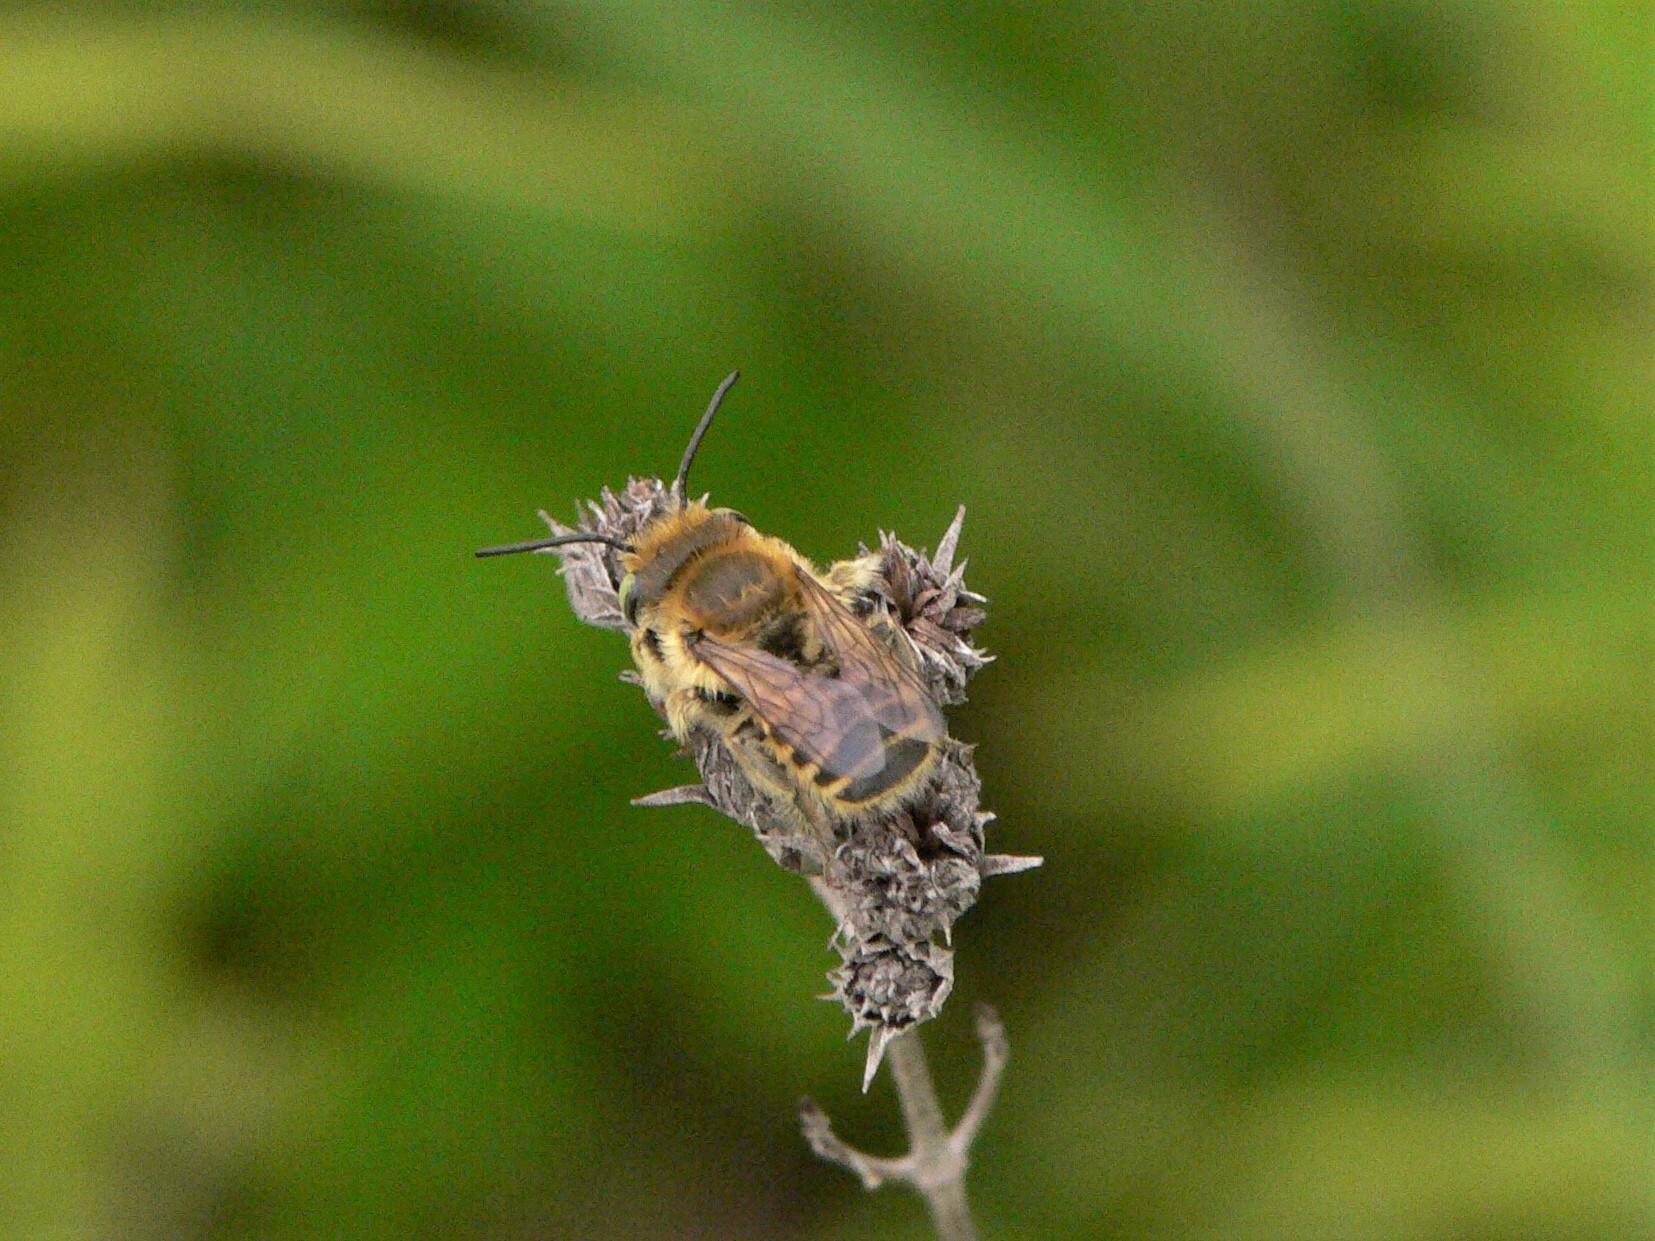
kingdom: Animalia
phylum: Arthropoda
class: Insecta
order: Hymenoptera
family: Megachilidae
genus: Megachile
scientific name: Megachile rotundata
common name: Alfalfa leafcutting bee
